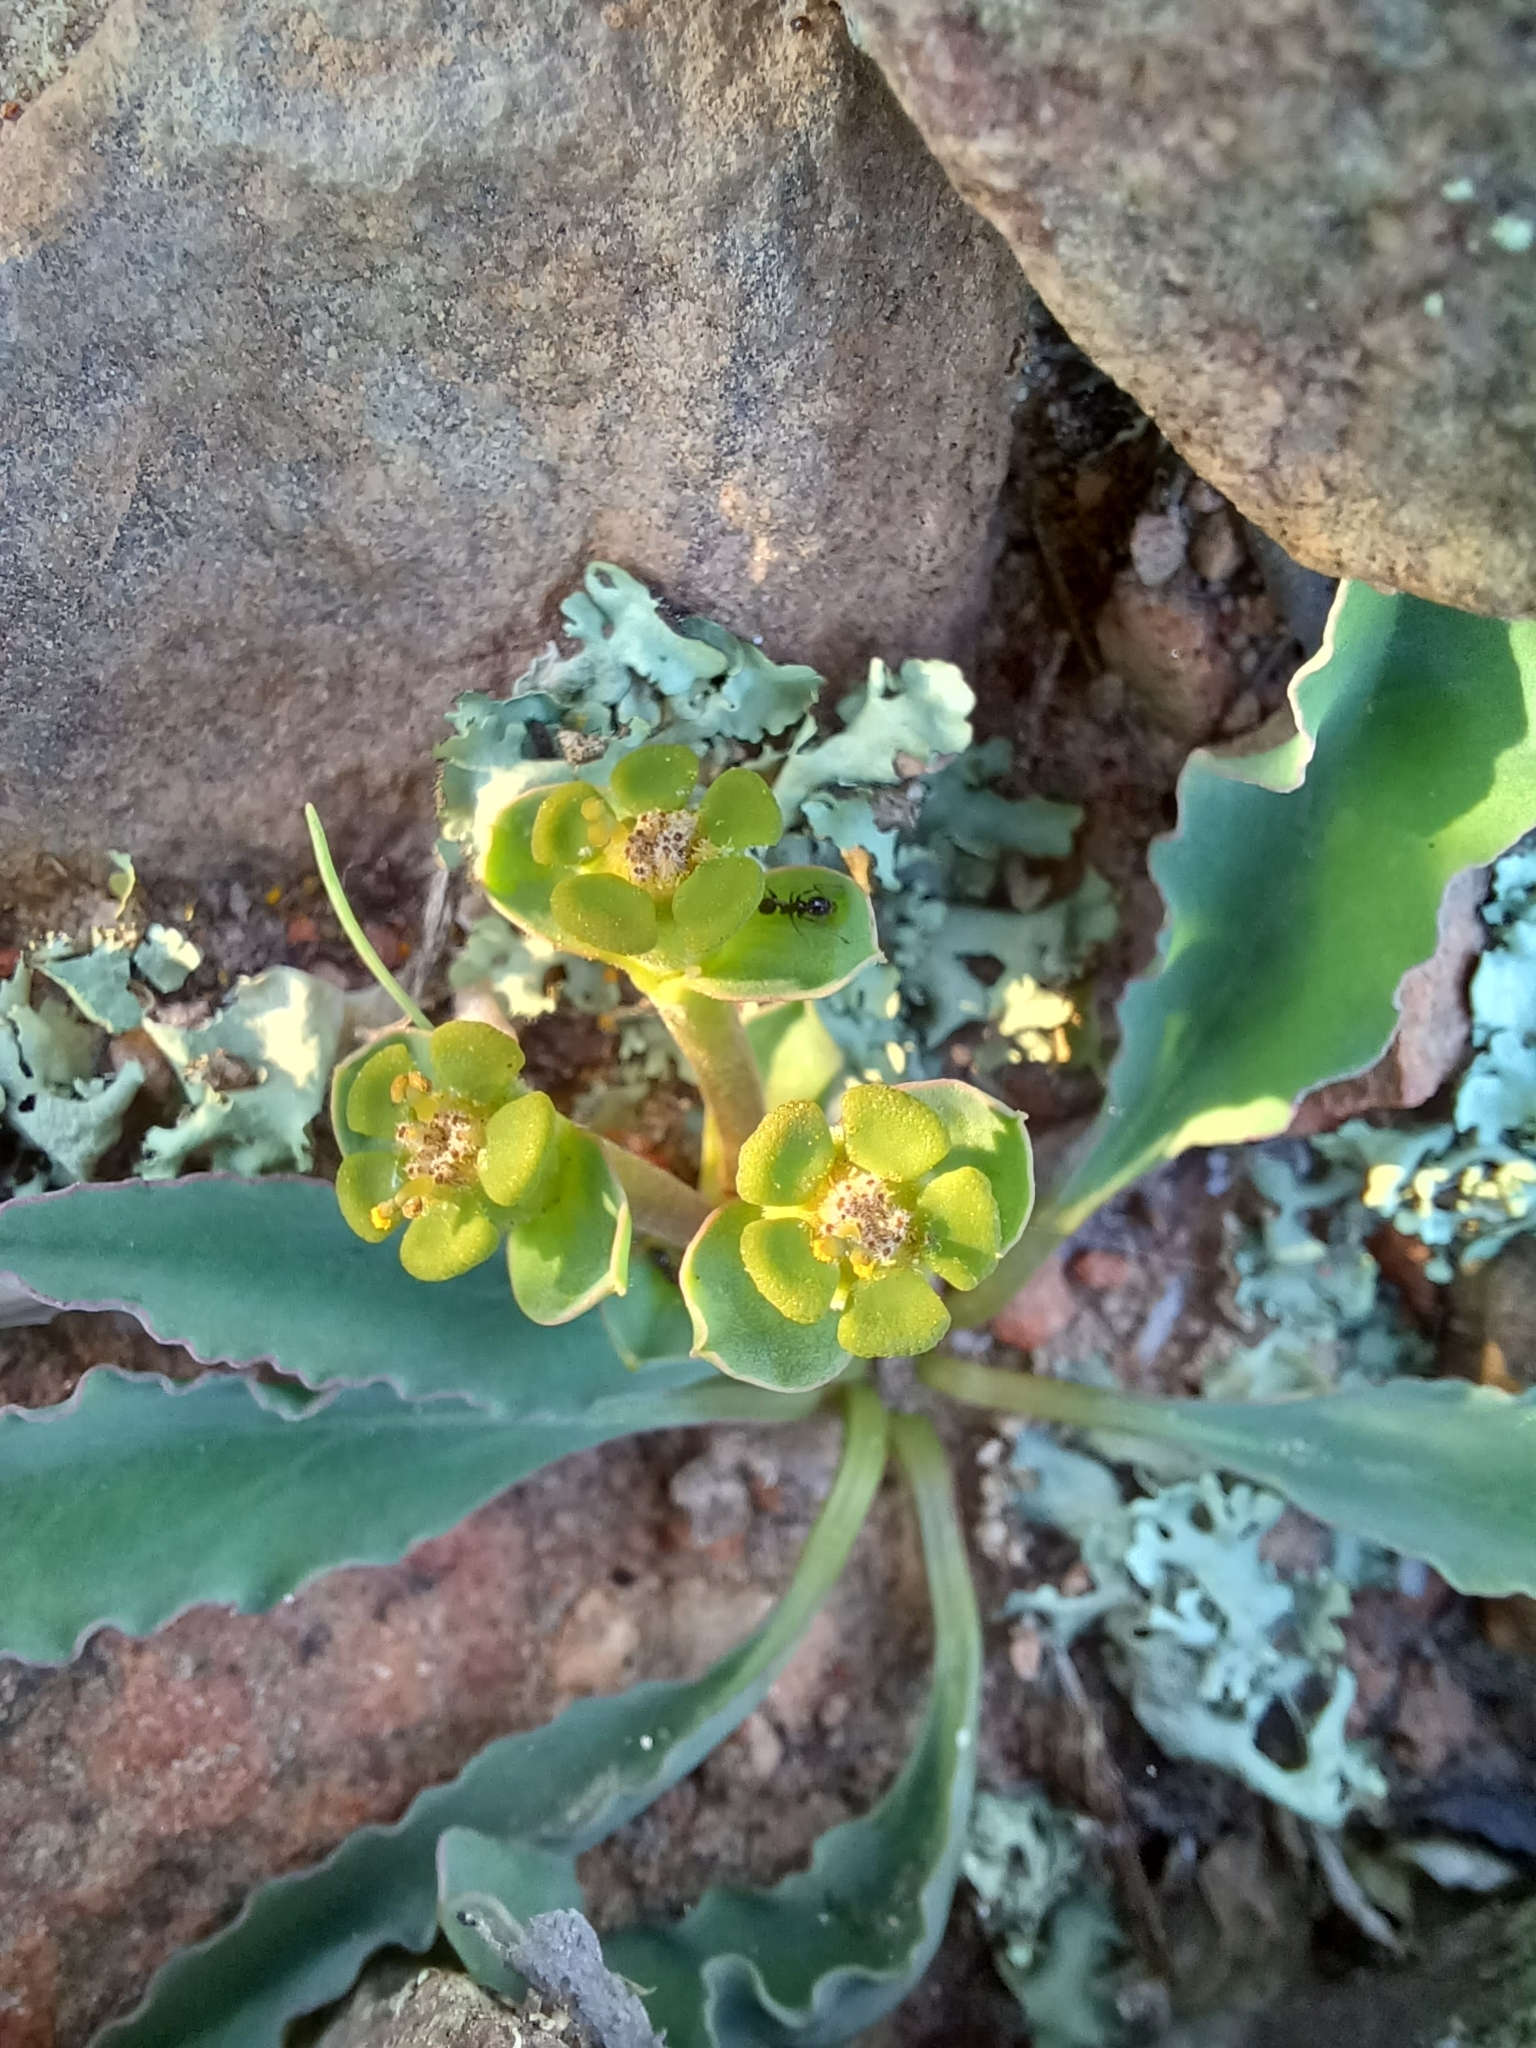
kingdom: Plantae
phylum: Tracheophyta
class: Magnoliopsida
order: Malpighiales
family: Euphorbiaceae
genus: Euphorbia
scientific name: Euphorbia tuberosa
